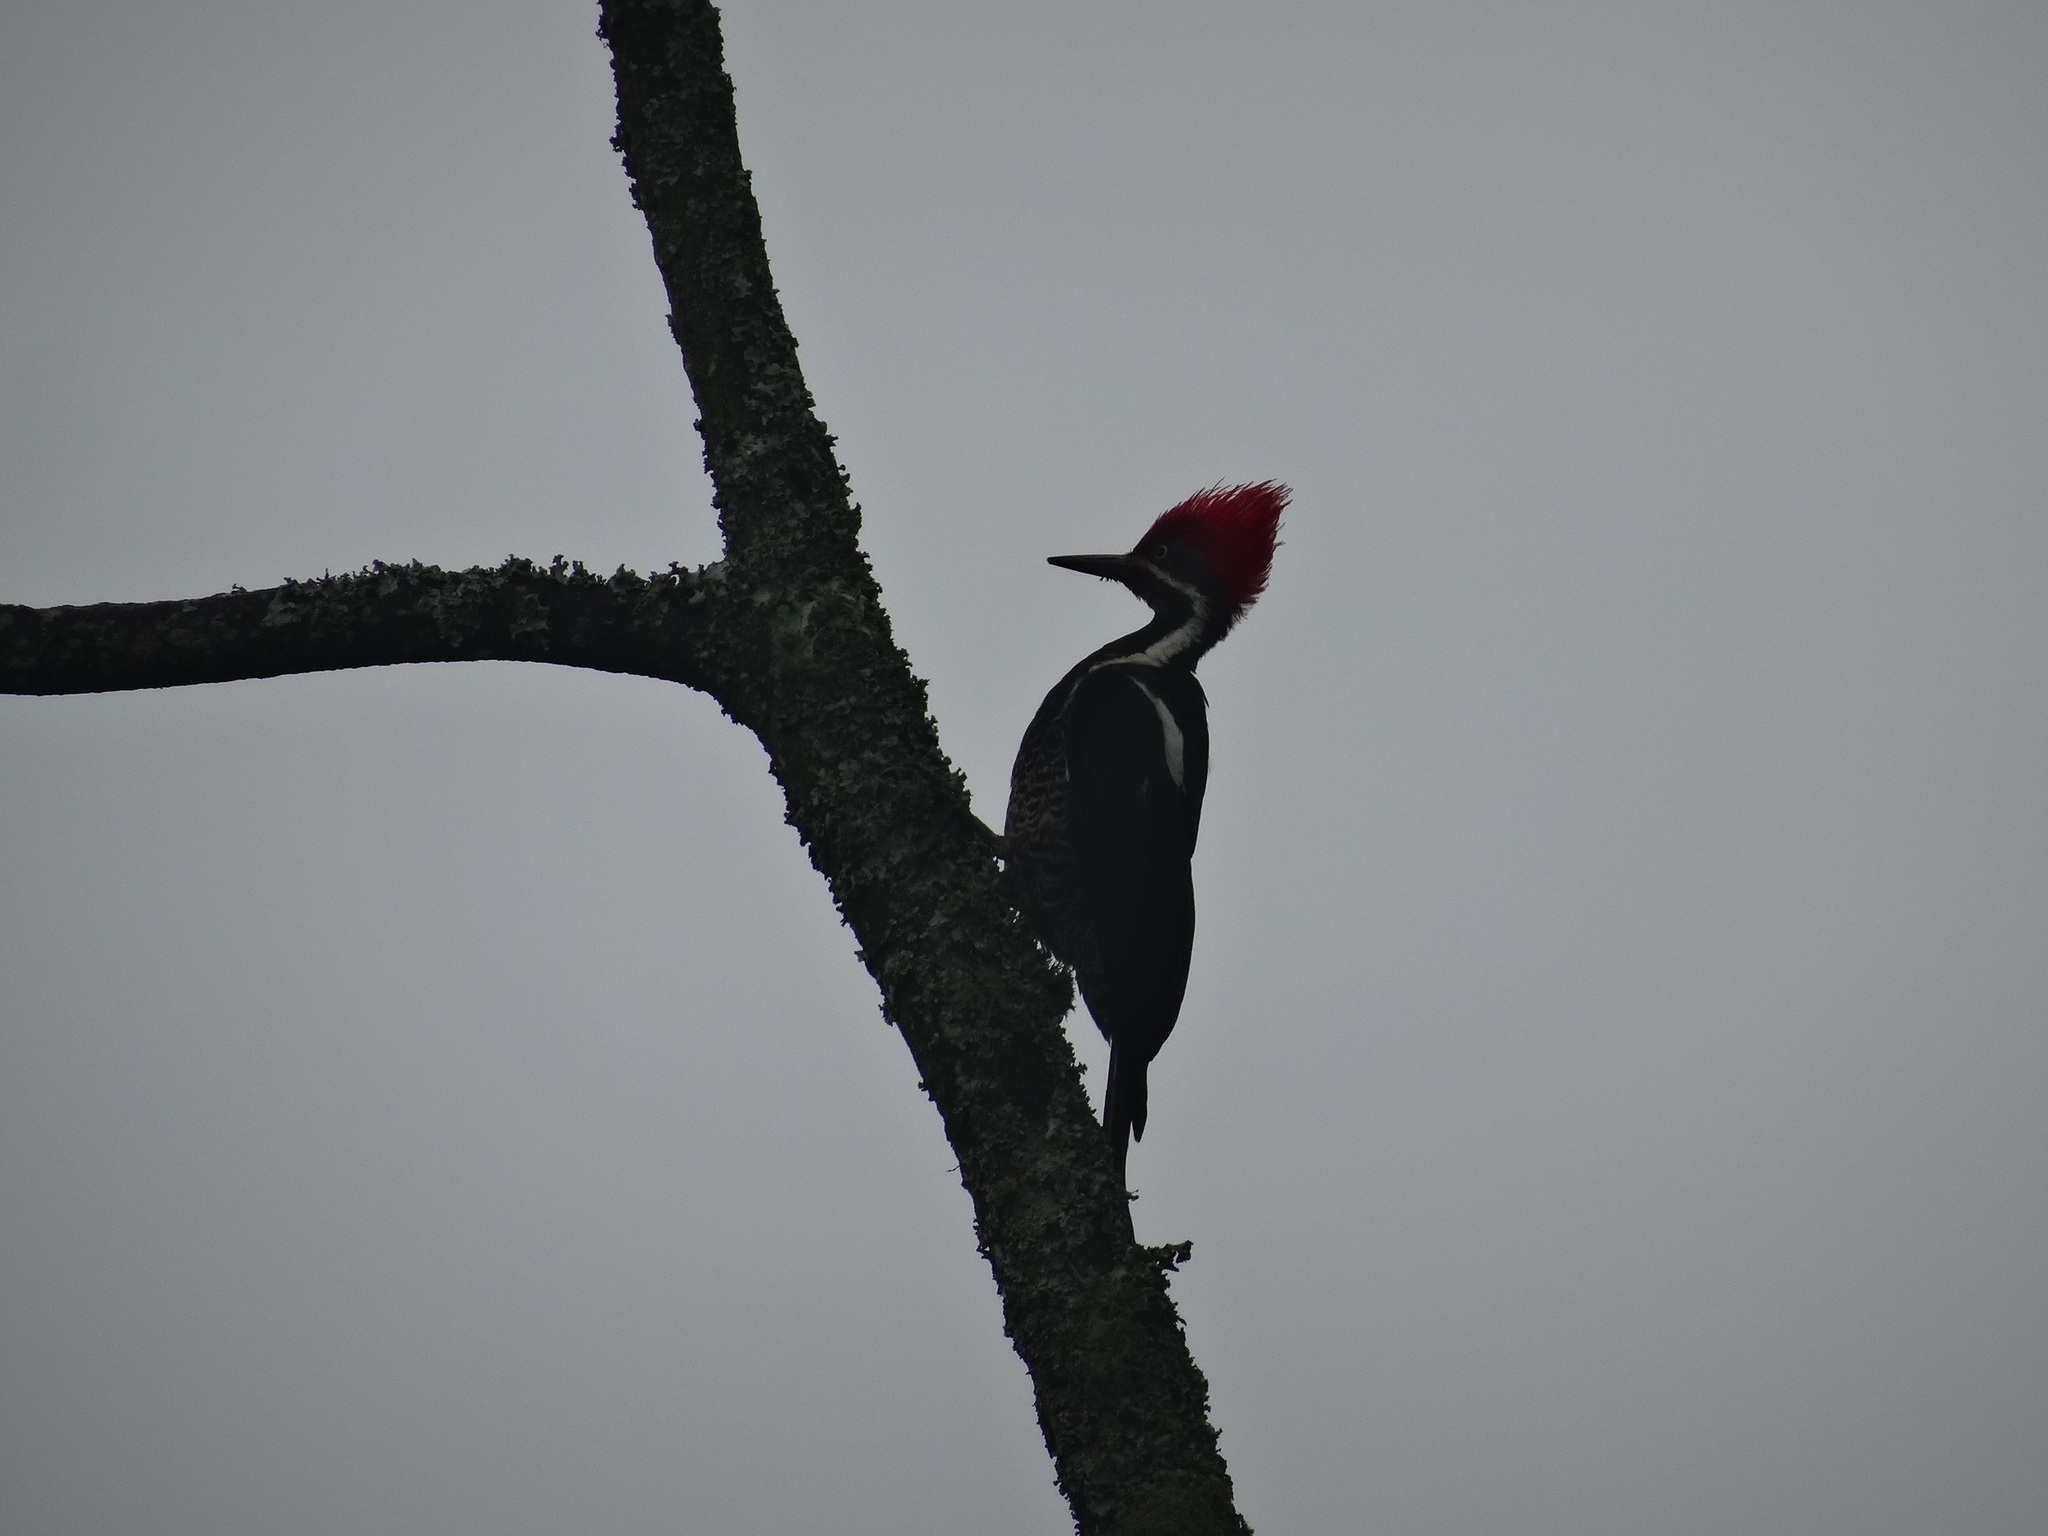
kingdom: Animalia
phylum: Chordata
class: Aves
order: Piciformes
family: Picidae
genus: Dryocopus
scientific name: Dryocopus lineatus
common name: Lineated woodpecker
